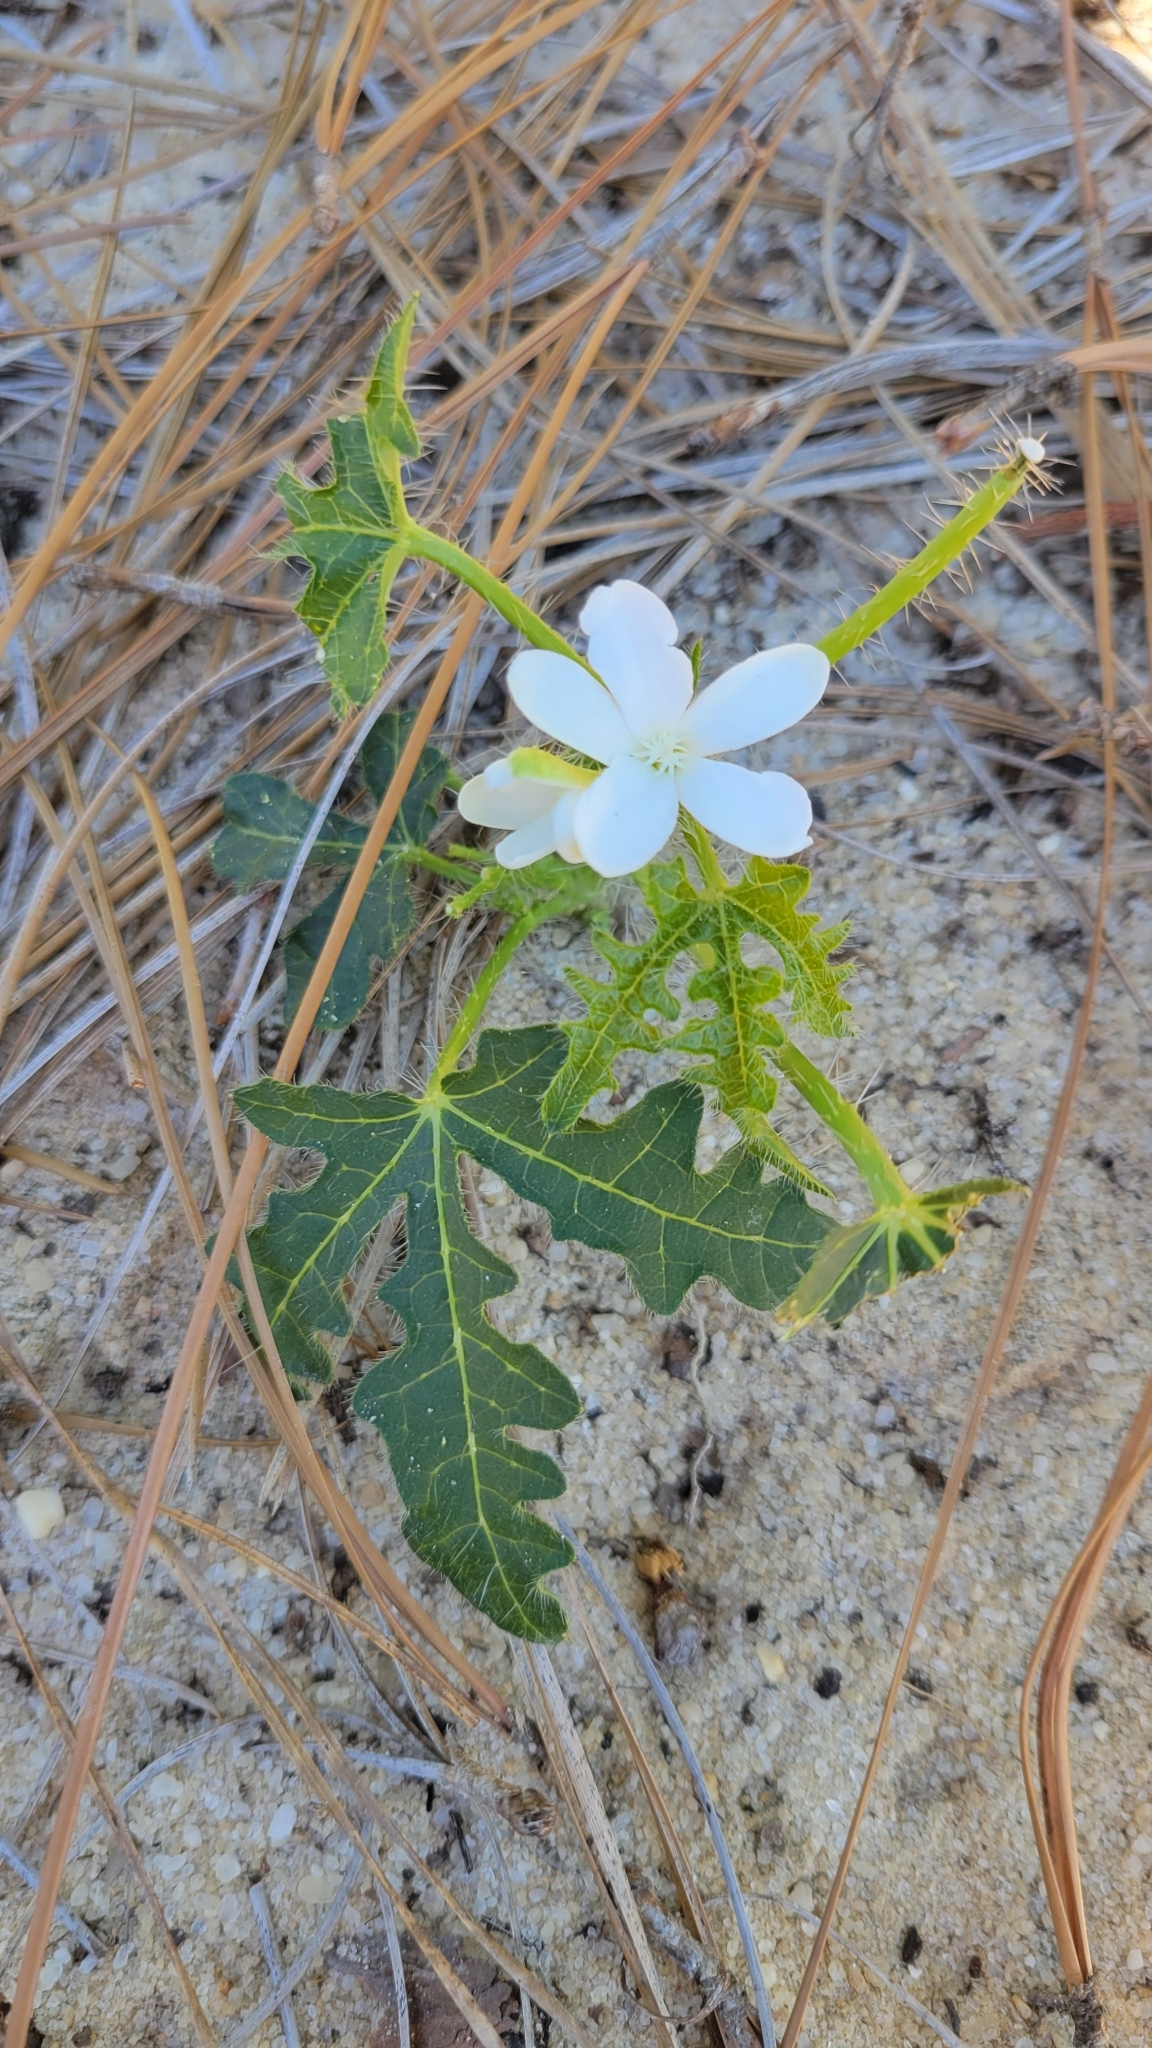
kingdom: Plantae
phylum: Tracheophyta
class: Magnoliopsida
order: Malpighiales
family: Euphorbiaceae
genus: Cnidoscolus
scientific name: Cnidoscolus stimulosus
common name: Bull-nettle
